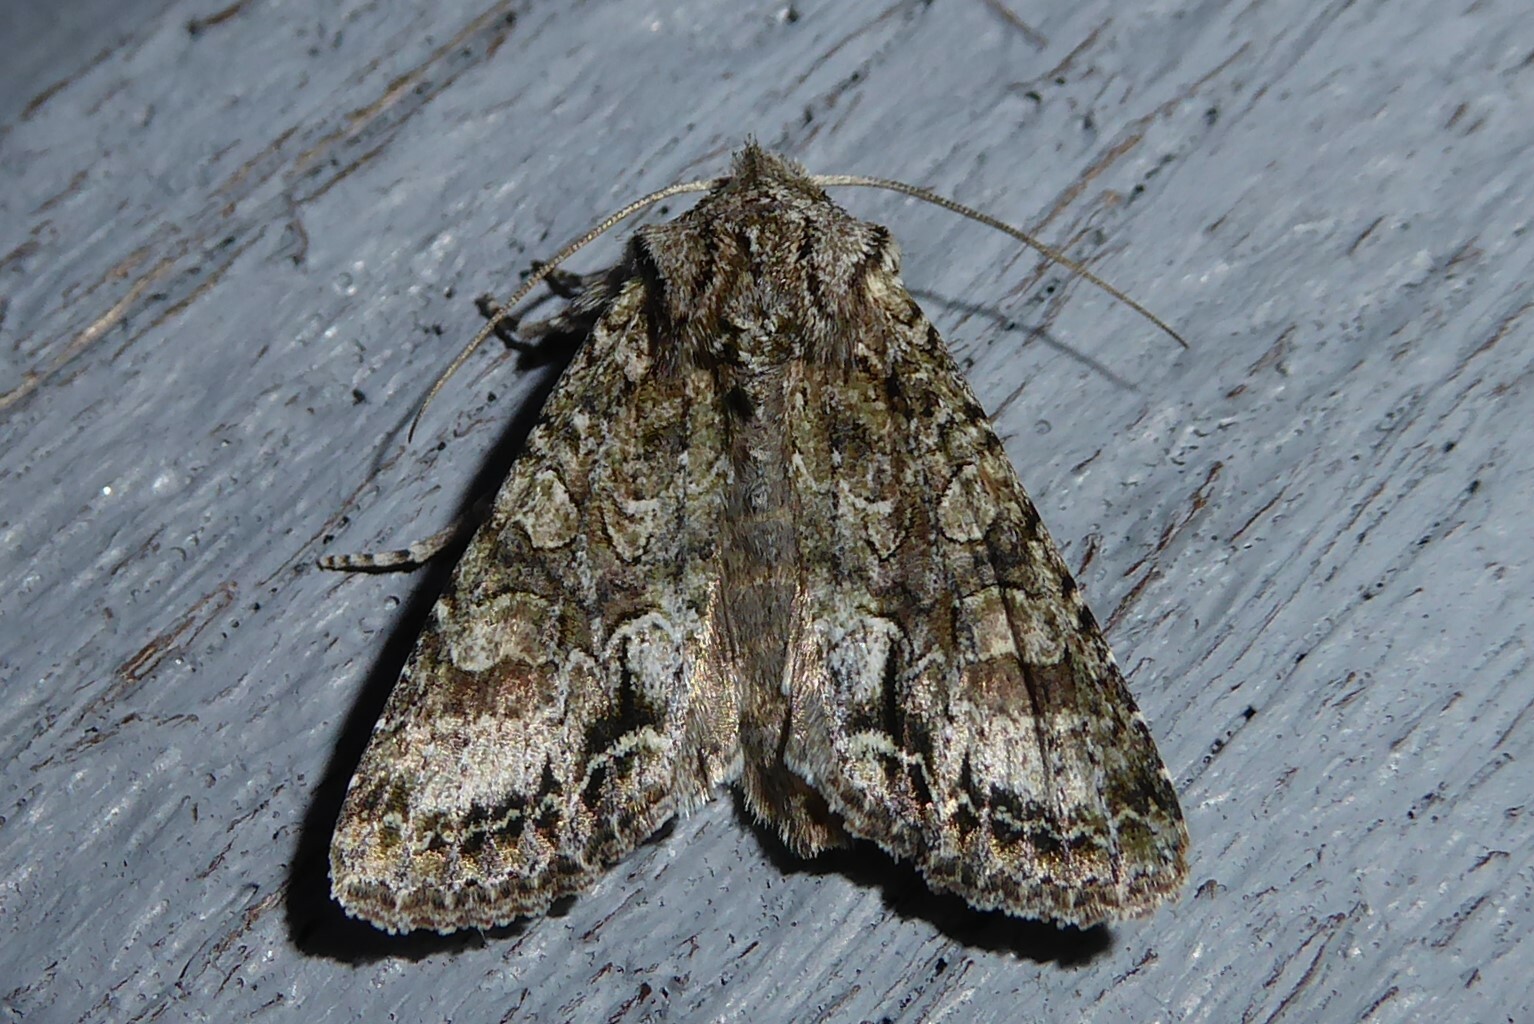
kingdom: Animalia
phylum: Arthropoda
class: Insecta
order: Lepidoptera
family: Noctuidae
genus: Ichneutica
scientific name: Ichneutica mutans
